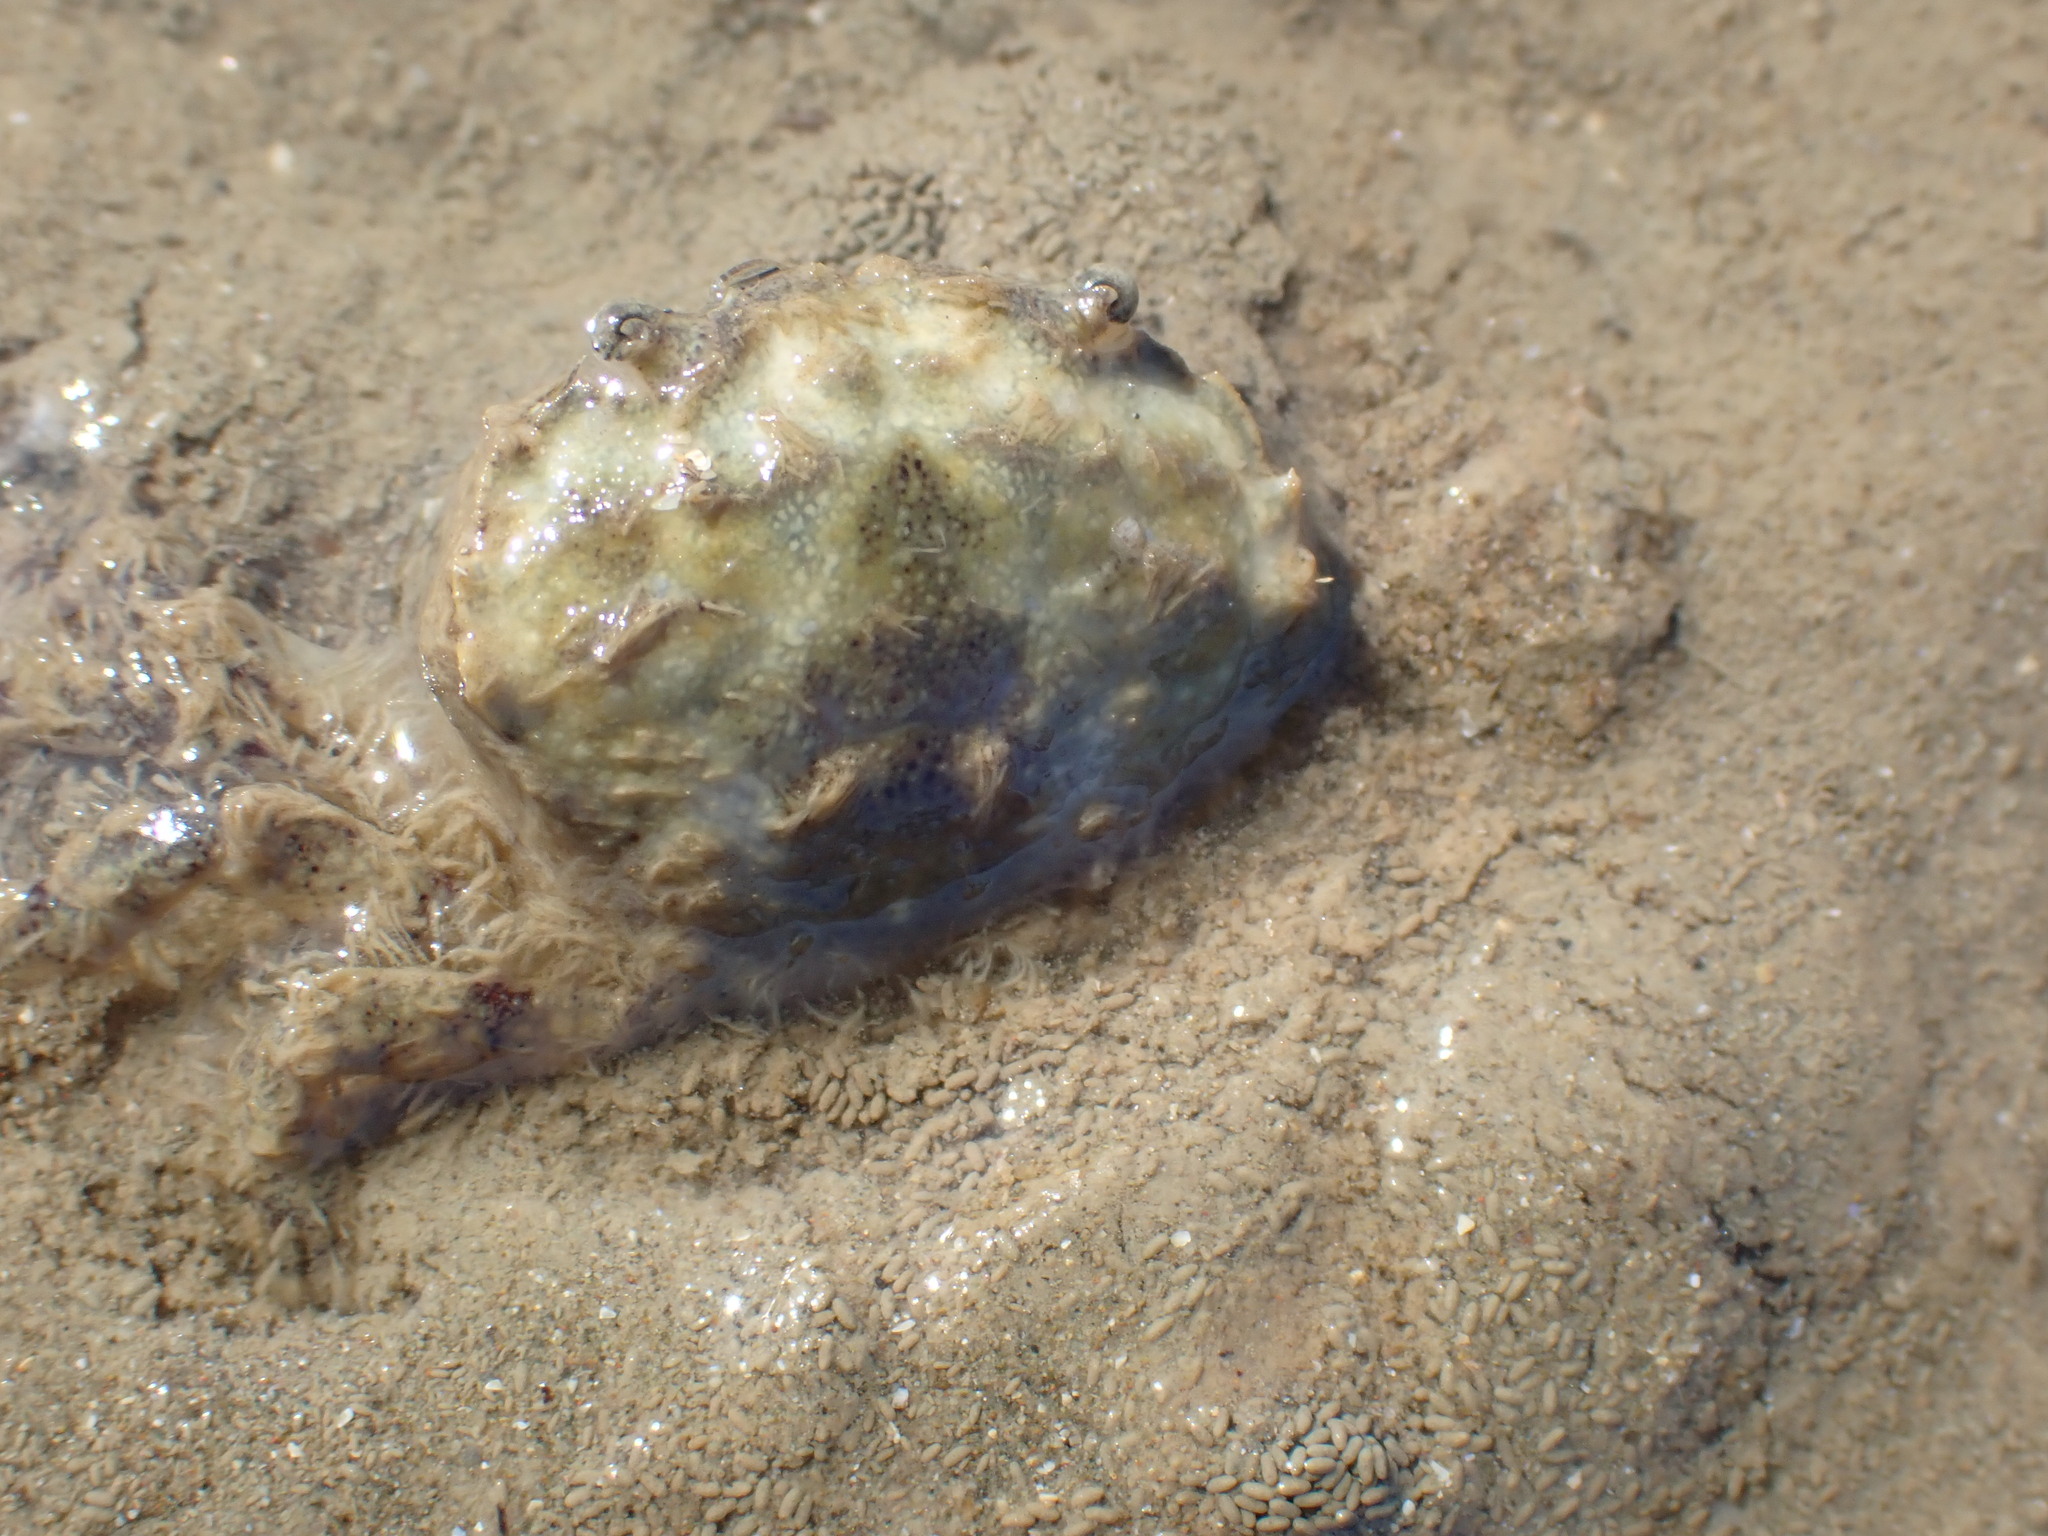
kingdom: Animalia
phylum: Arthropoda
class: Malacostraca
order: Decapoda
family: Pilumnidae
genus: Pilumnopeus
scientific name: Pilumnopeus serratifrons
